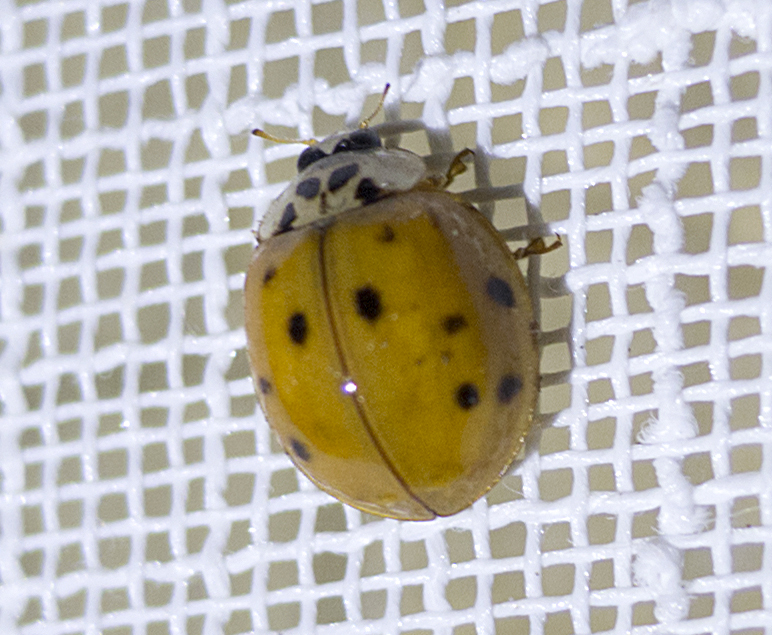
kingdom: Animalia
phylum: Arthropoda
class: Insecta
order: Coleoptera
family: Coccinellidae
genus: Harmonia
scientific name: Harmonia axyridis
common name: Harlequin ladybird
